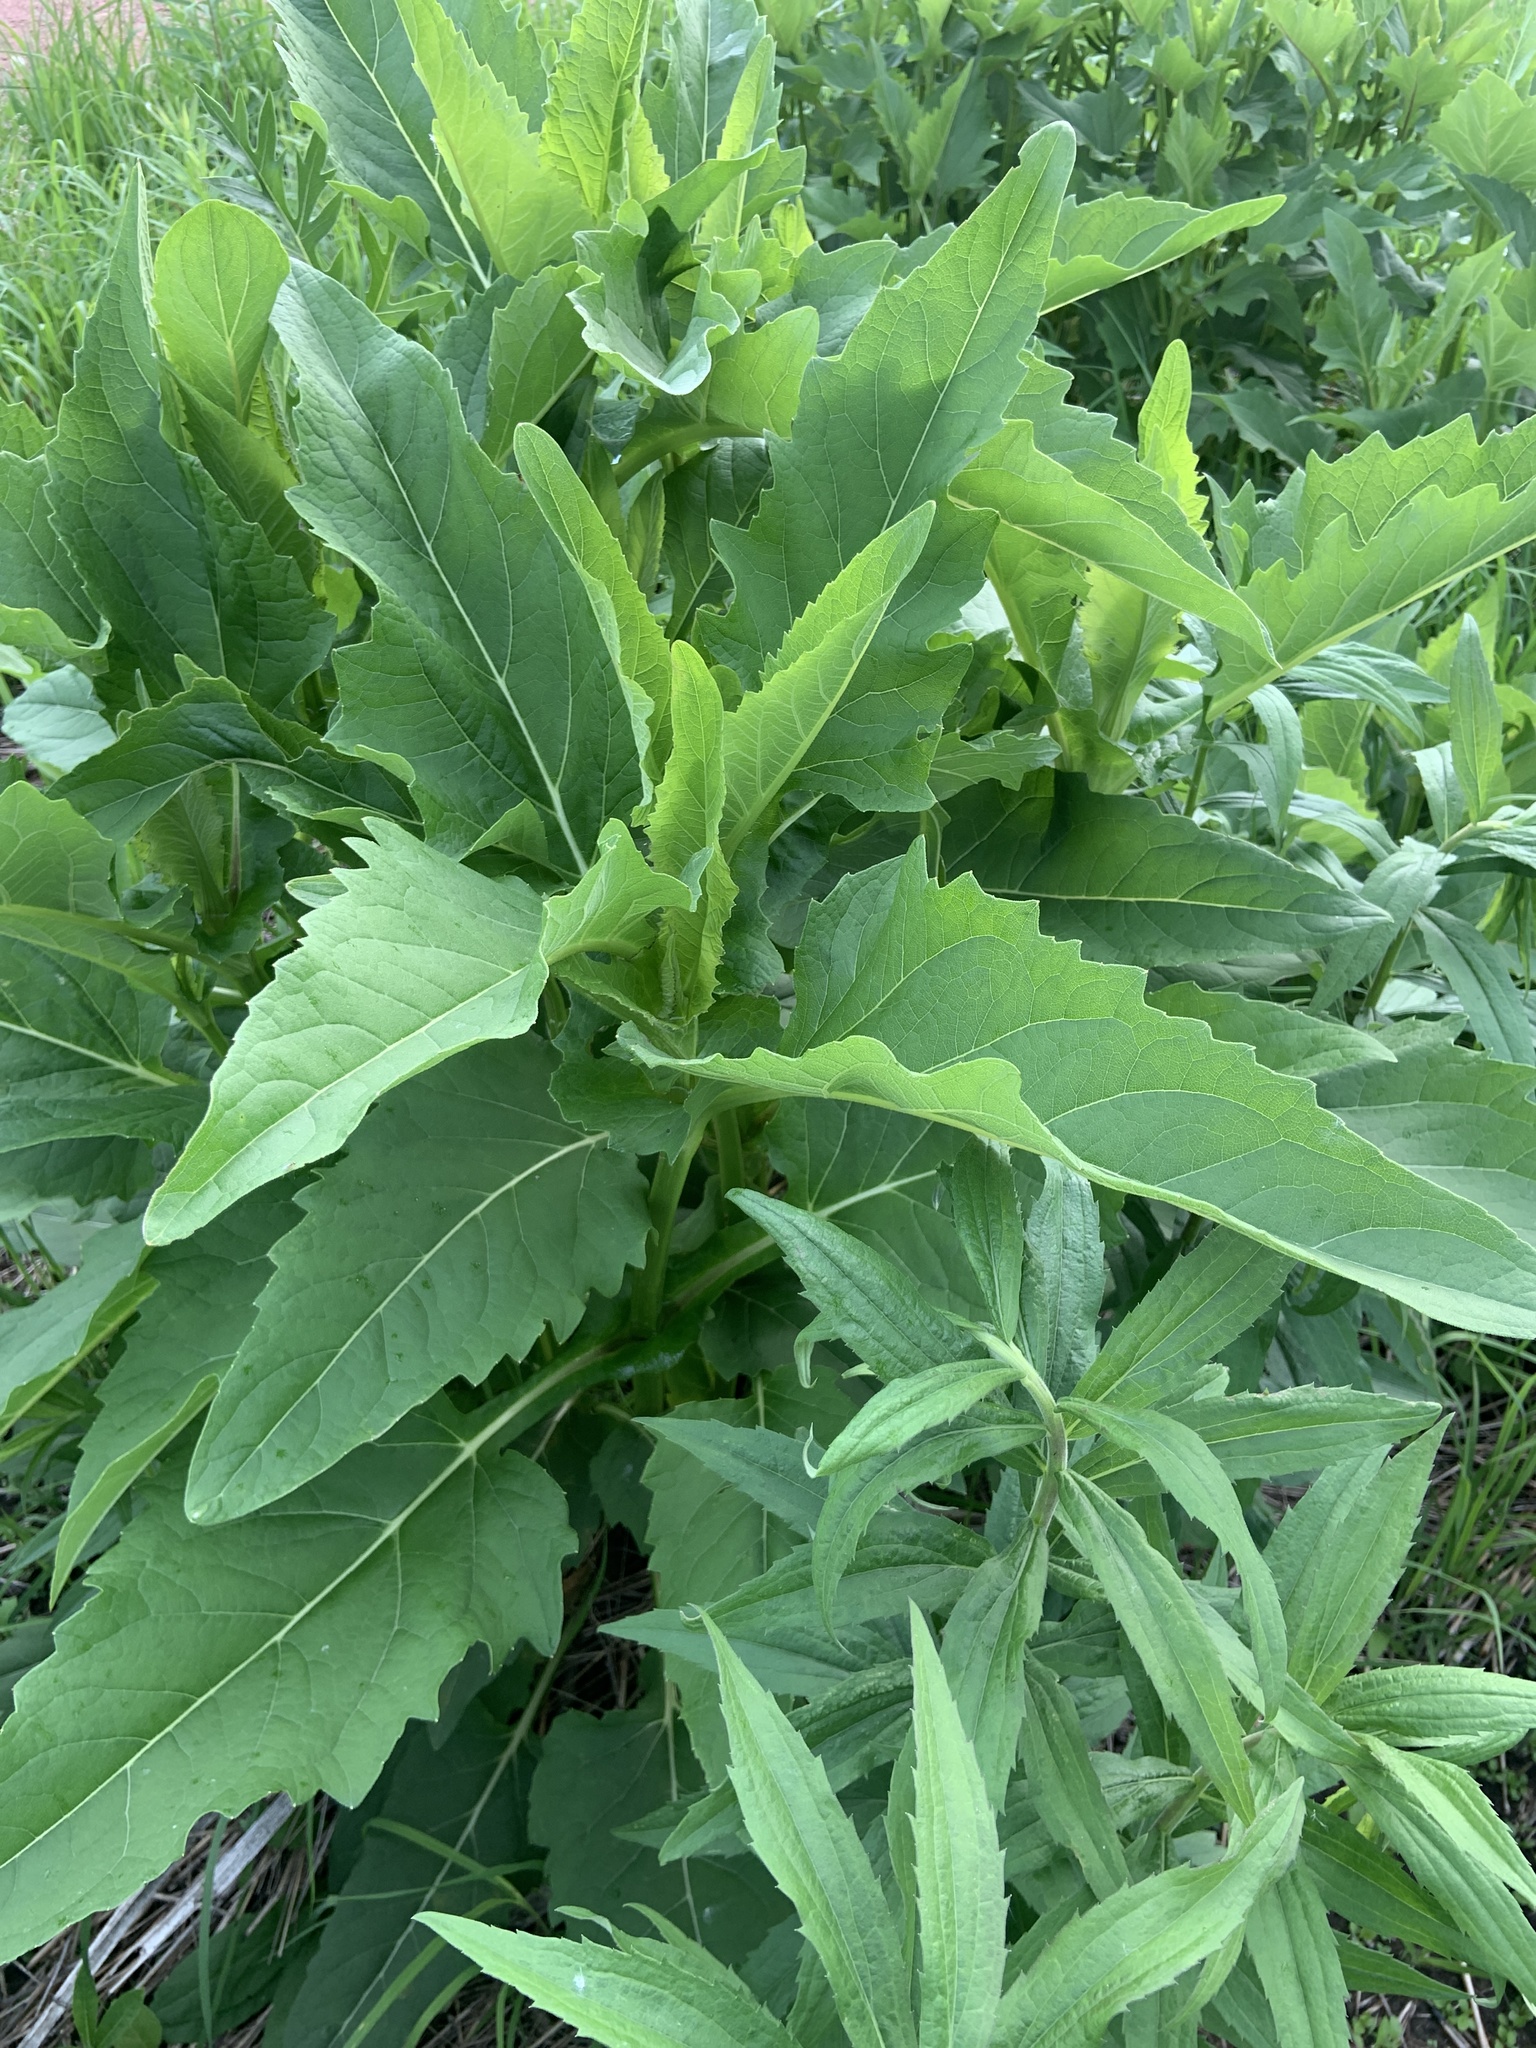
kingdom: Plantae
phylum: Tracheophyta
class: Magnoliopsida
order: Asterales
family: Asteraceae
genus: Silphium
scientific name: Silphium perfoliatum
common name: Cup-plant
